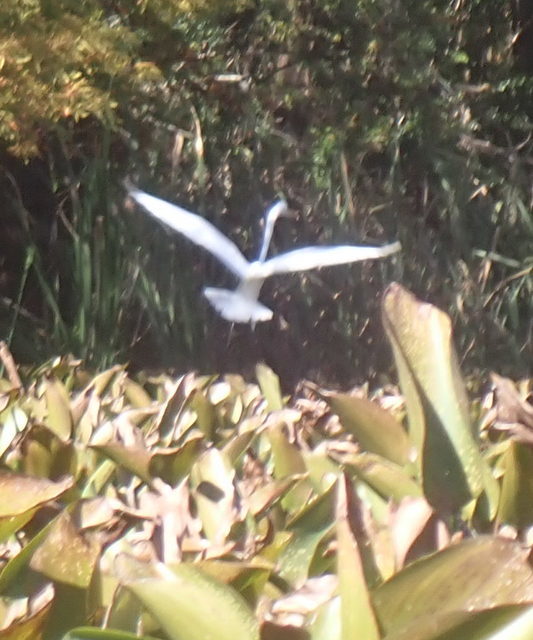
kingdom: Animalia
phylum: Chordata
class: Aves
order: Pelecaniformes
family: Ardeidae
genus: Ardea
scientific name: Ardea alba
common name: Great egret
